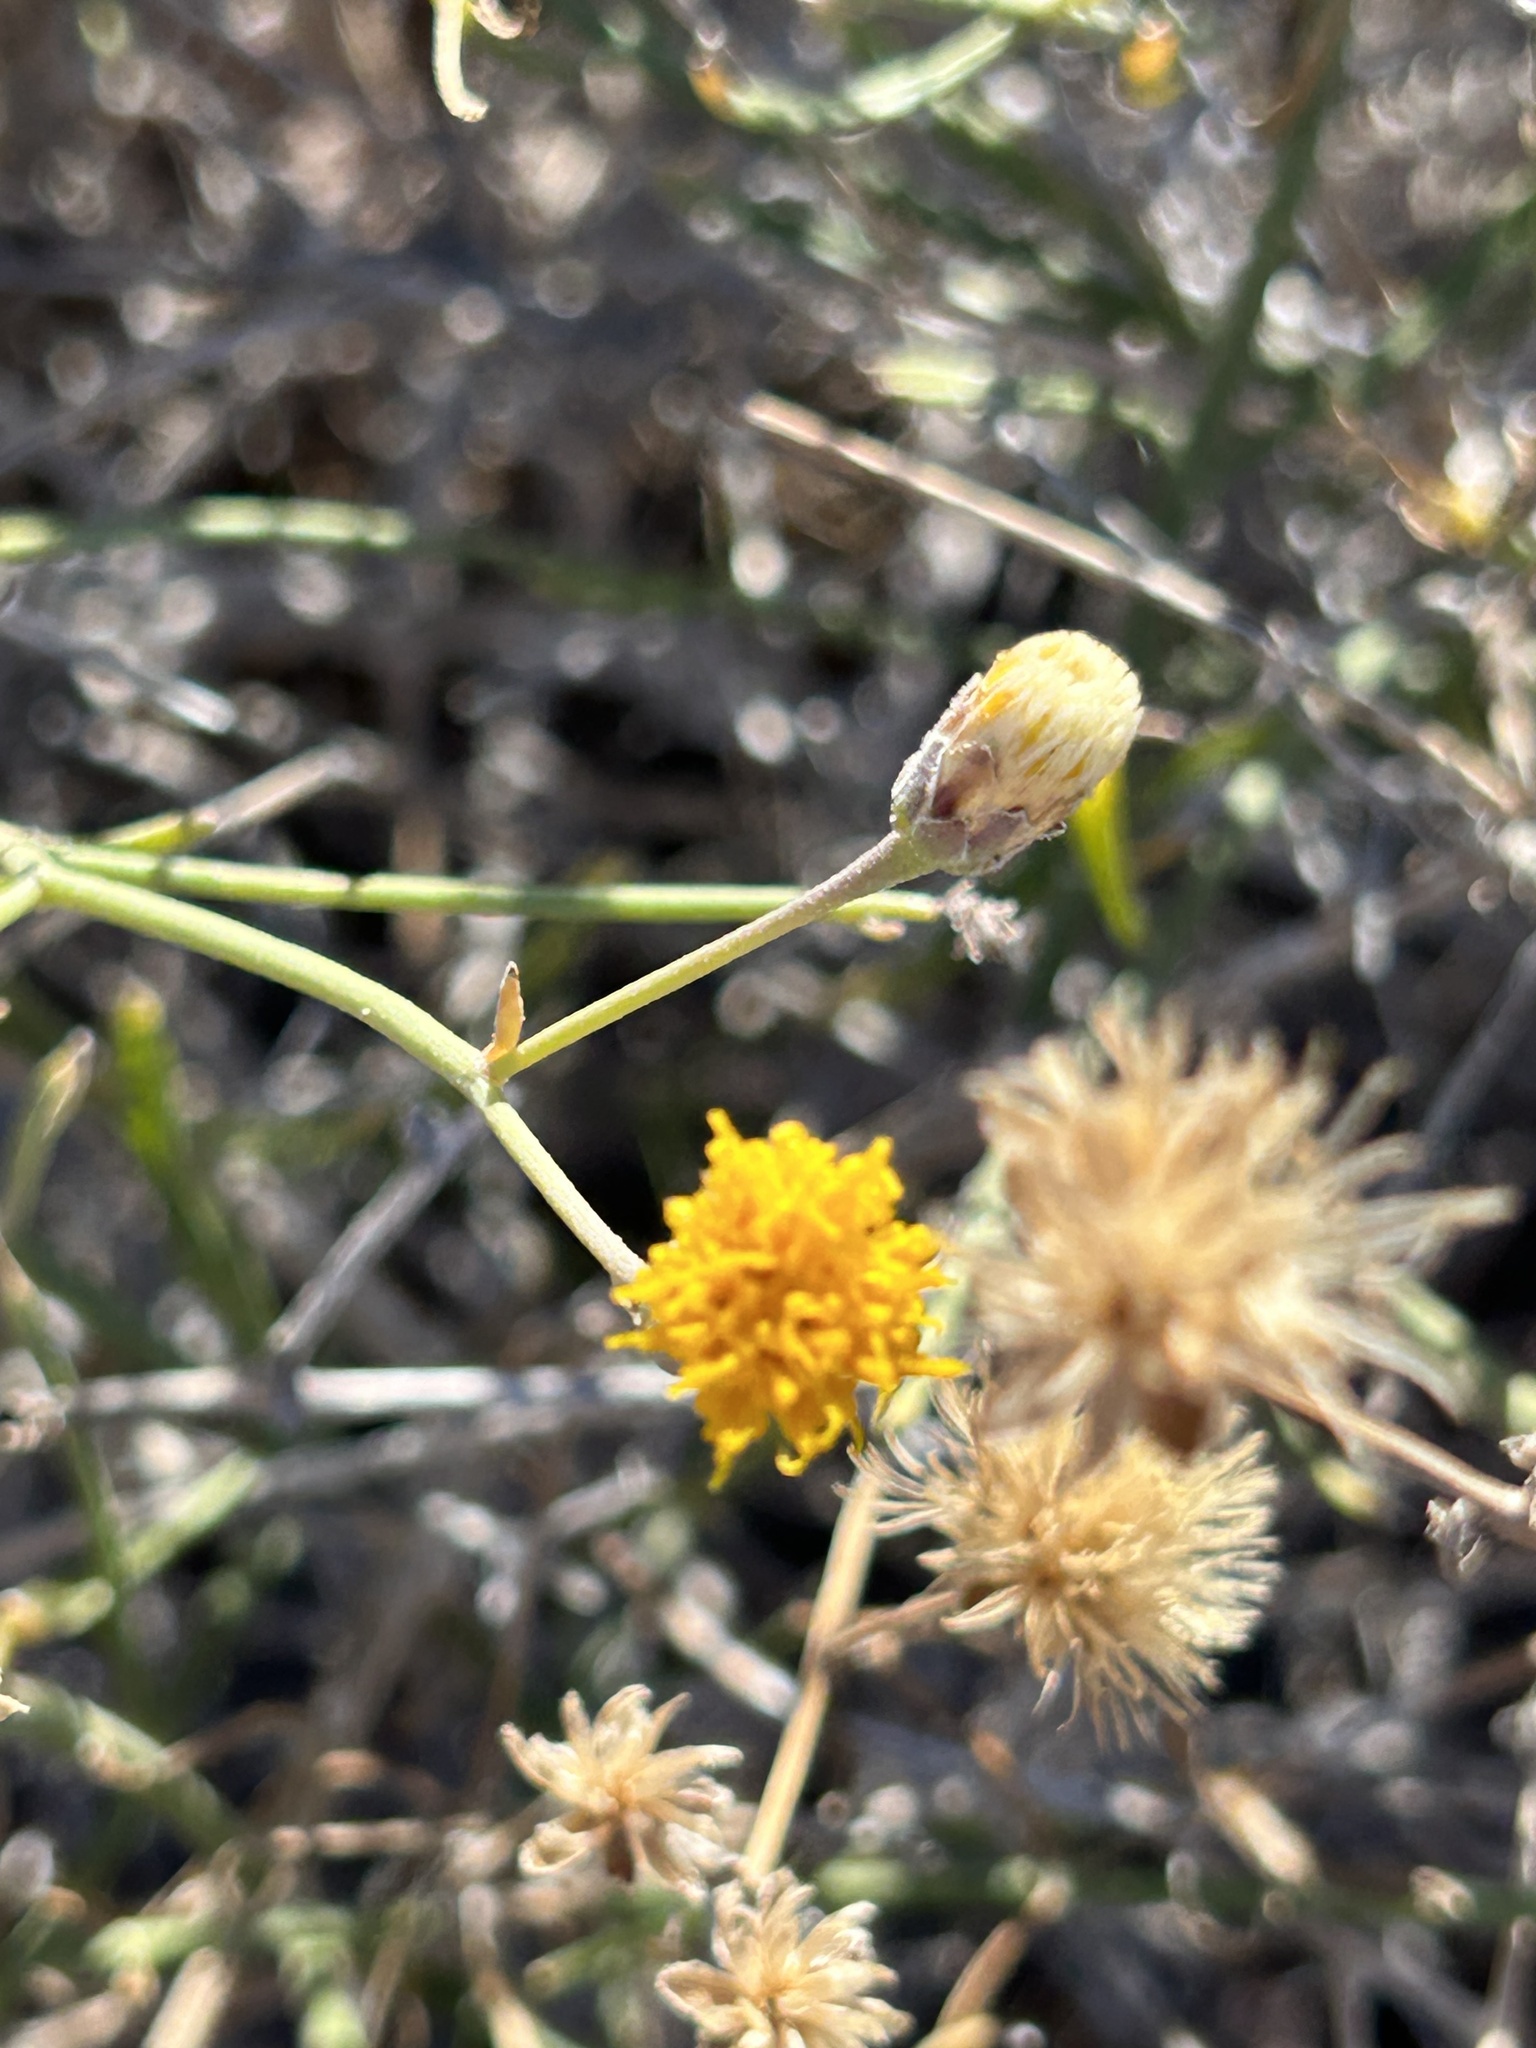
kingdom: Plantae
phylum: Tracheophyta
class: Magnoliopsida
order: Asterales
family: Asteraceae
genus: Bebbia
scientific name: Bebbia juncea
